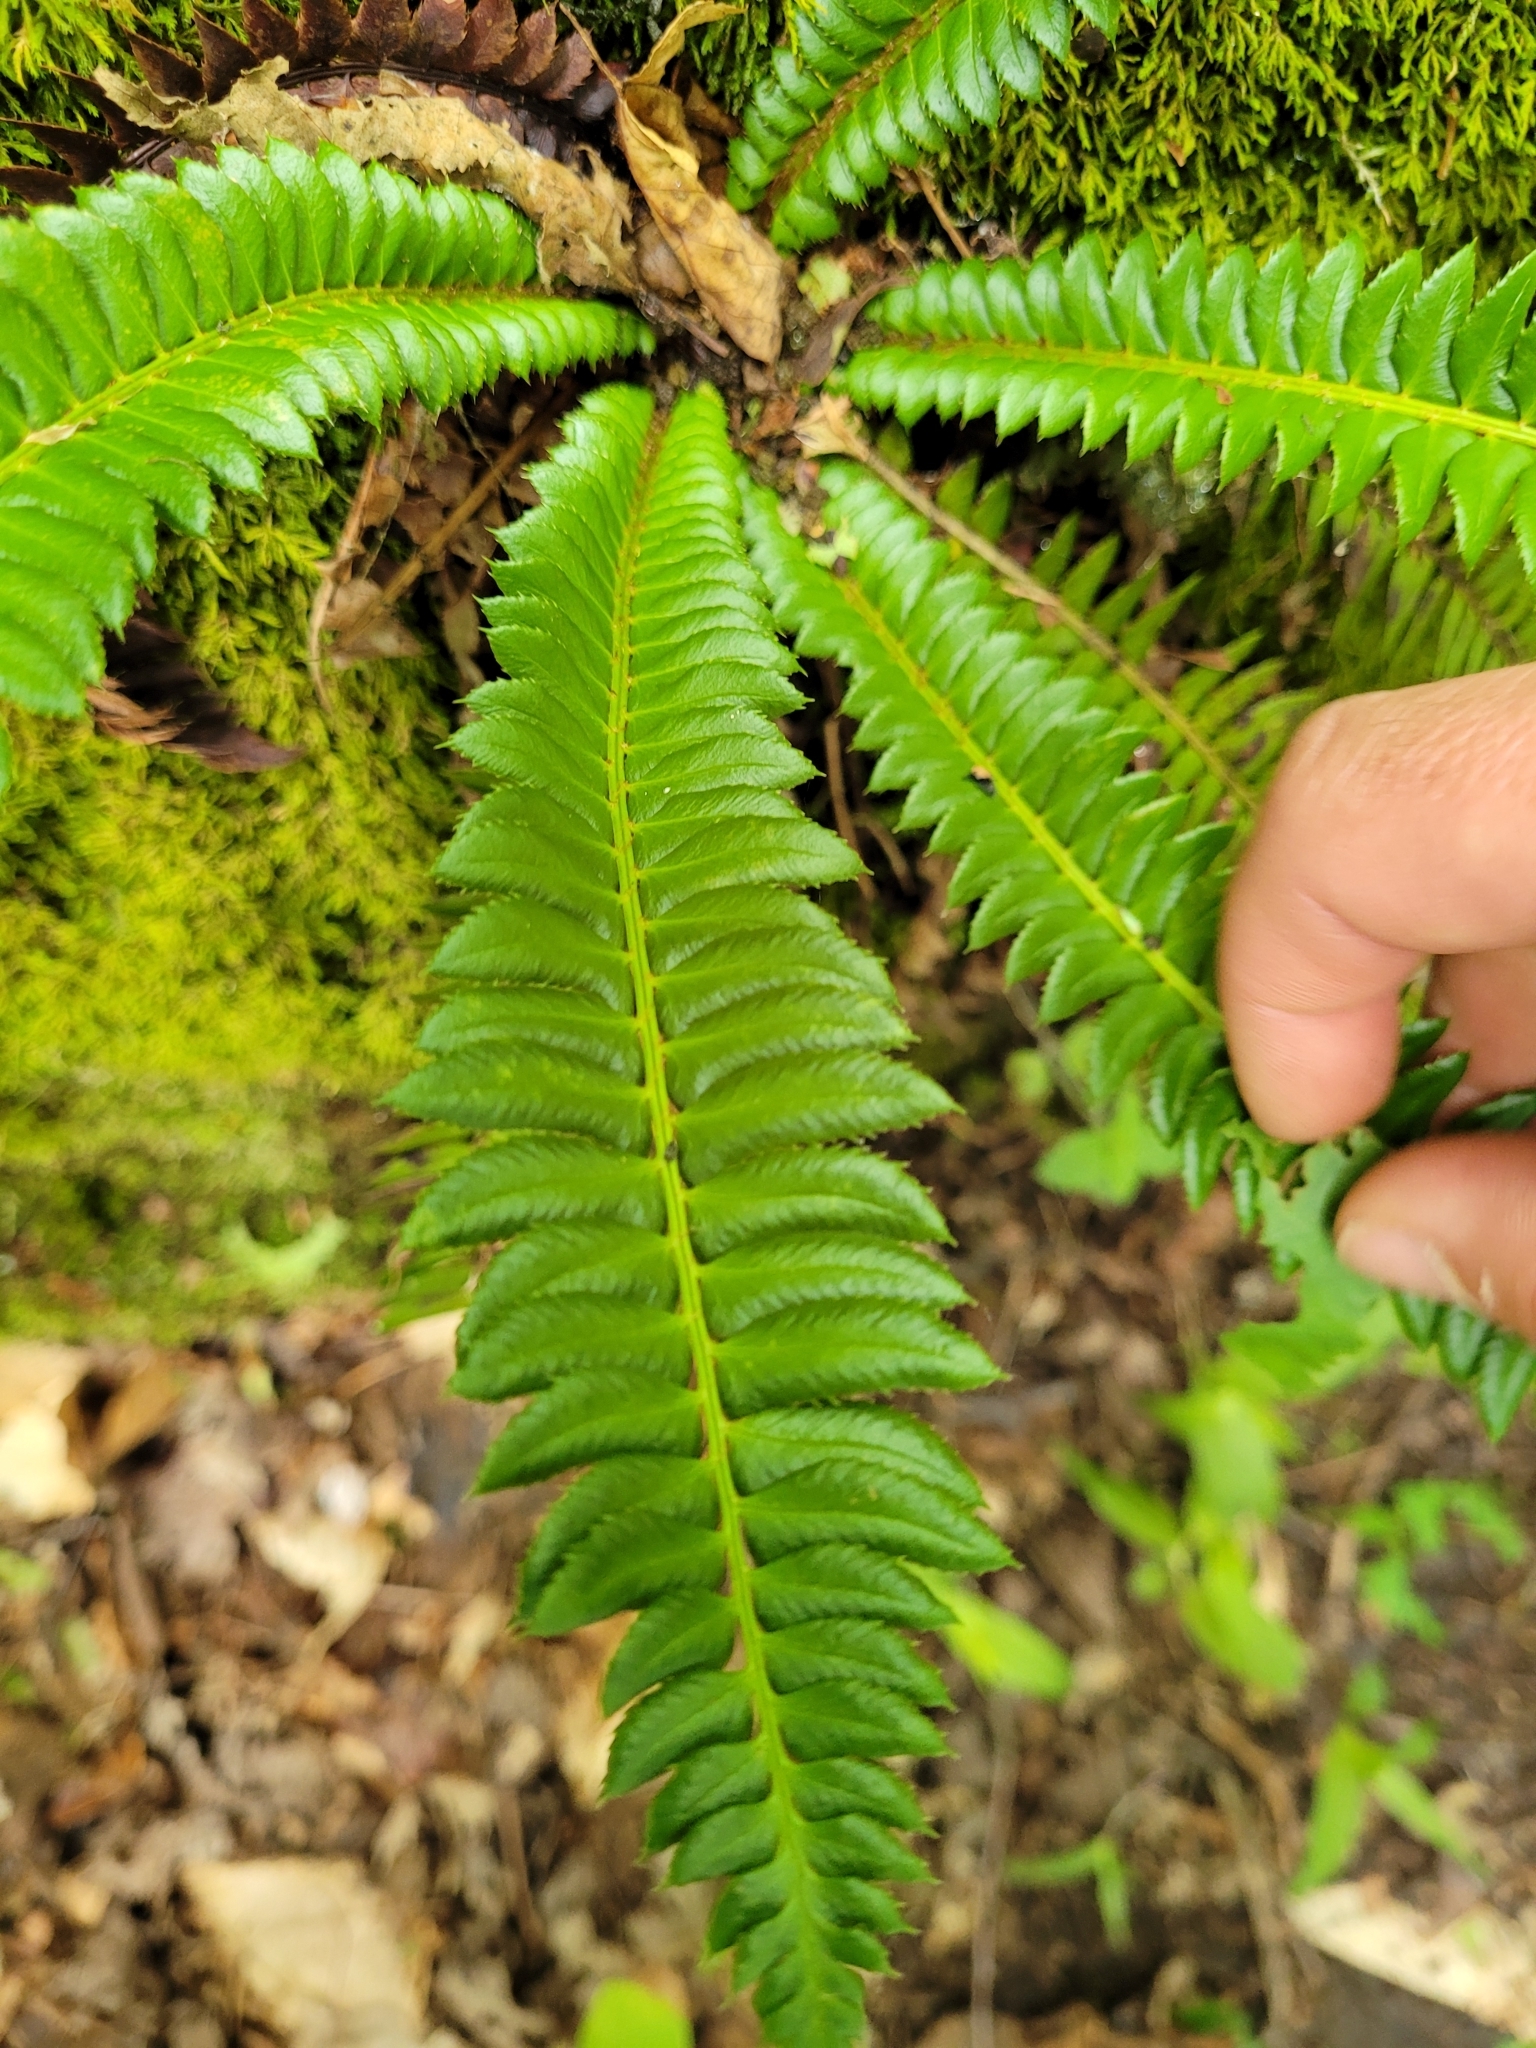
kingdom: Plantae
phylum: Tracheophyta
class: Polypodiopsida
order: Polypodiales
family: Dryopteridaceae
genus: Polystichum
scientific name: Polystichum lonchitis
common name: Holly fern
